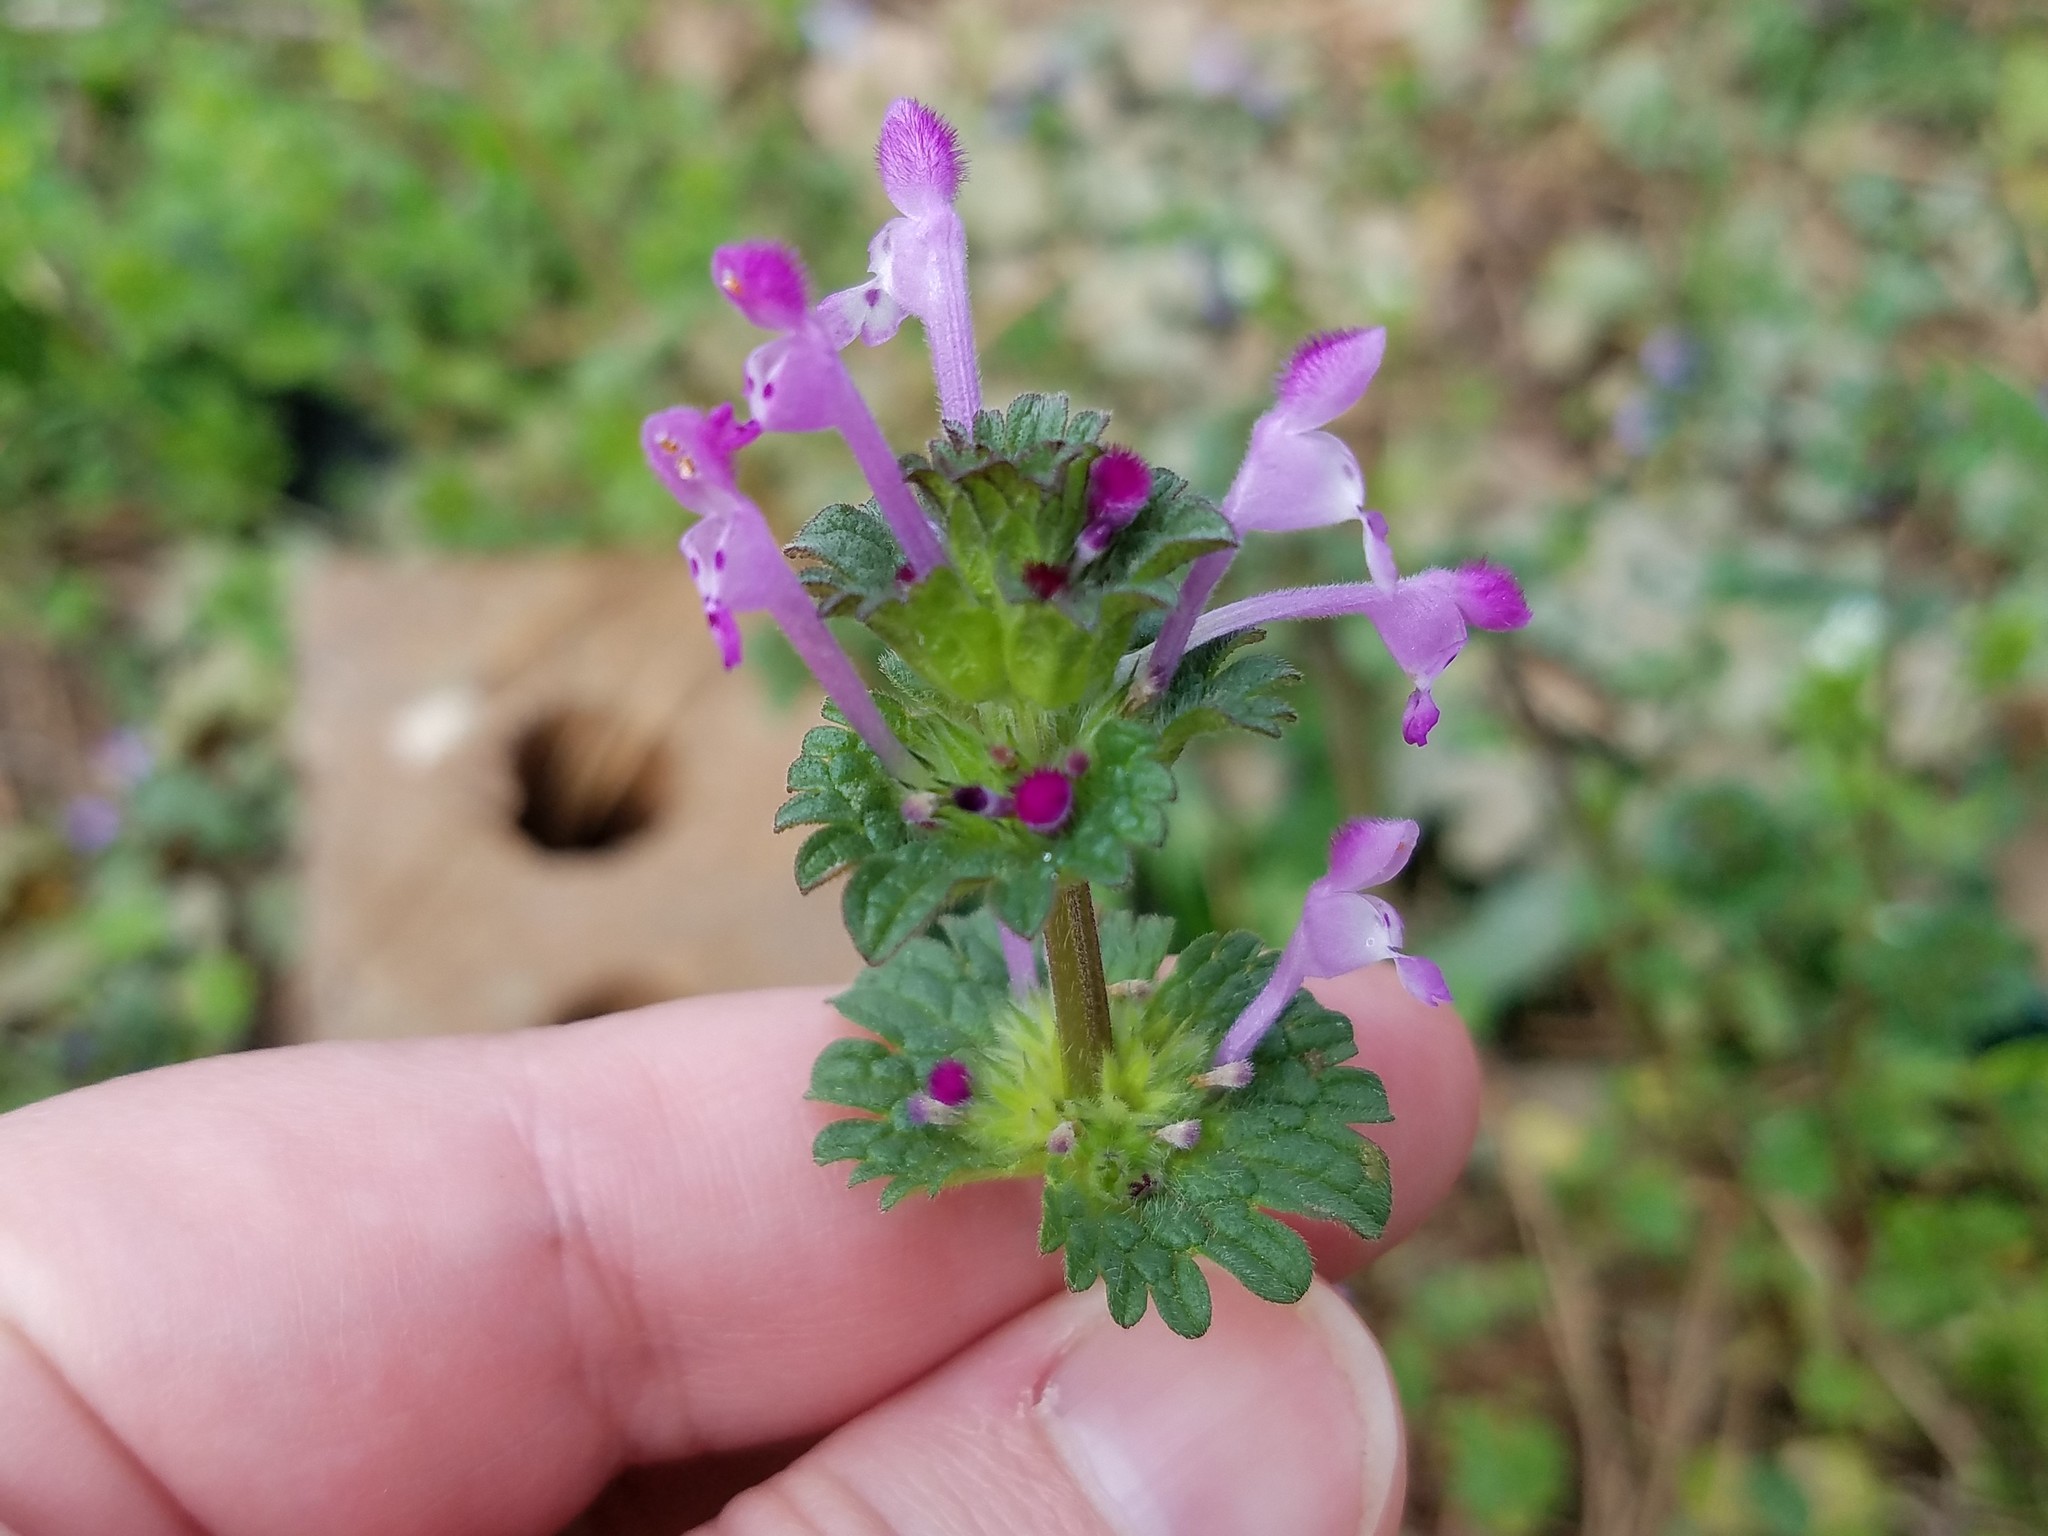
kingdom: Plantae
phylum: Tracheophyta
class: Magnoliopsida
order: Lamiales
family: Lamiaceae
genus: Lamium
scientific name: Lamium amplexicaule
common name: Henbit dead-nettle
